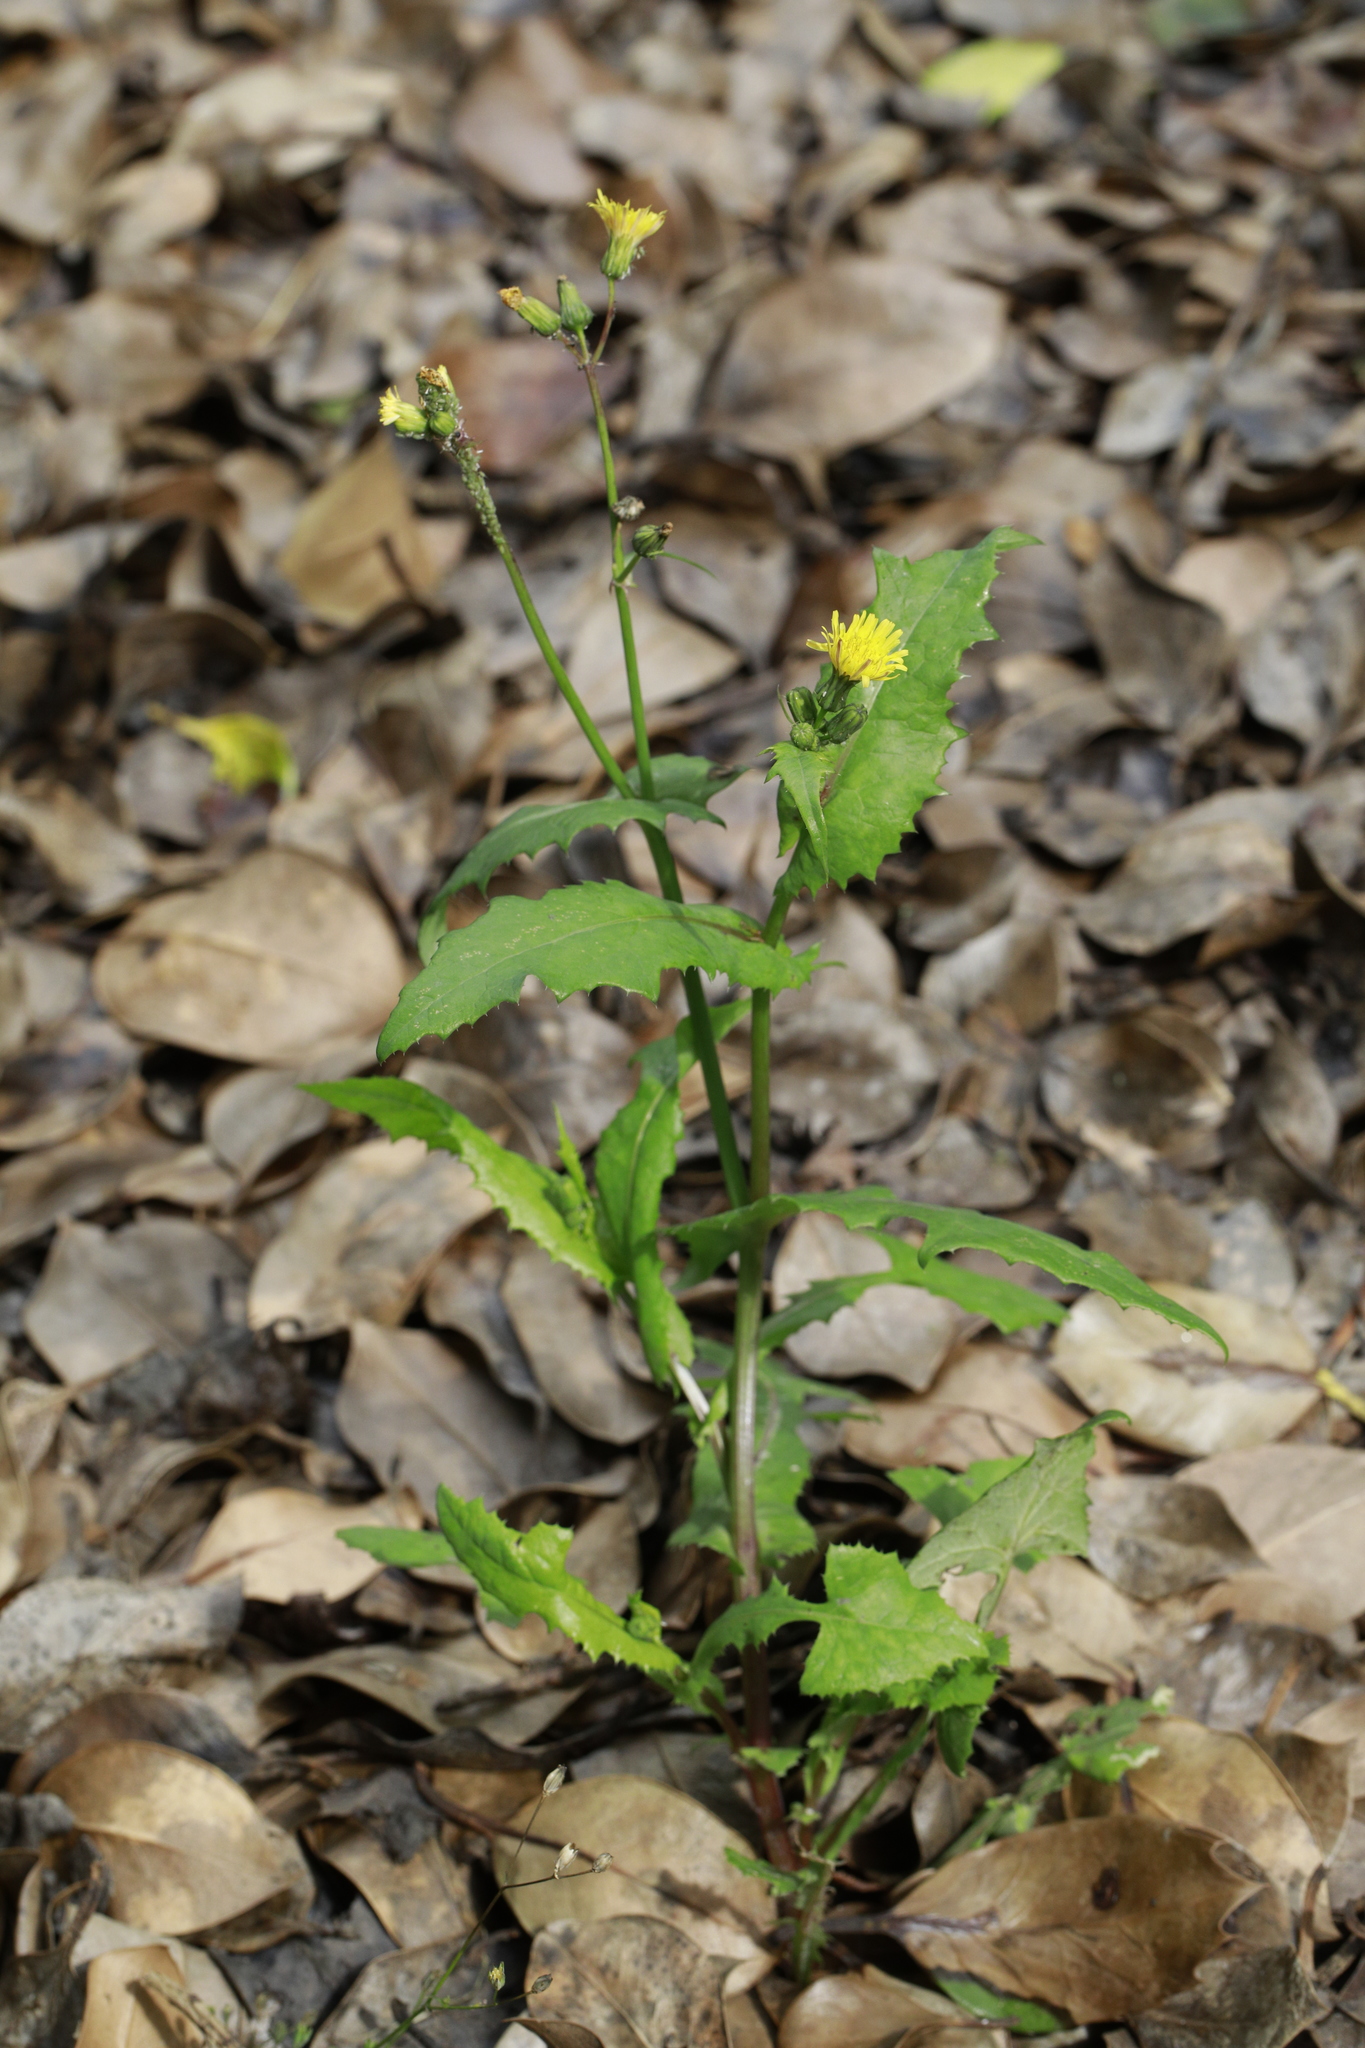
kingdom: Plantae
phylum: Tracheophyta
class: Magnoliopsida
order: Asterales
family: Asteraceae
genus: Sonchus
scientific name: Sonchus oleraceus
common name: Common sowthistle
